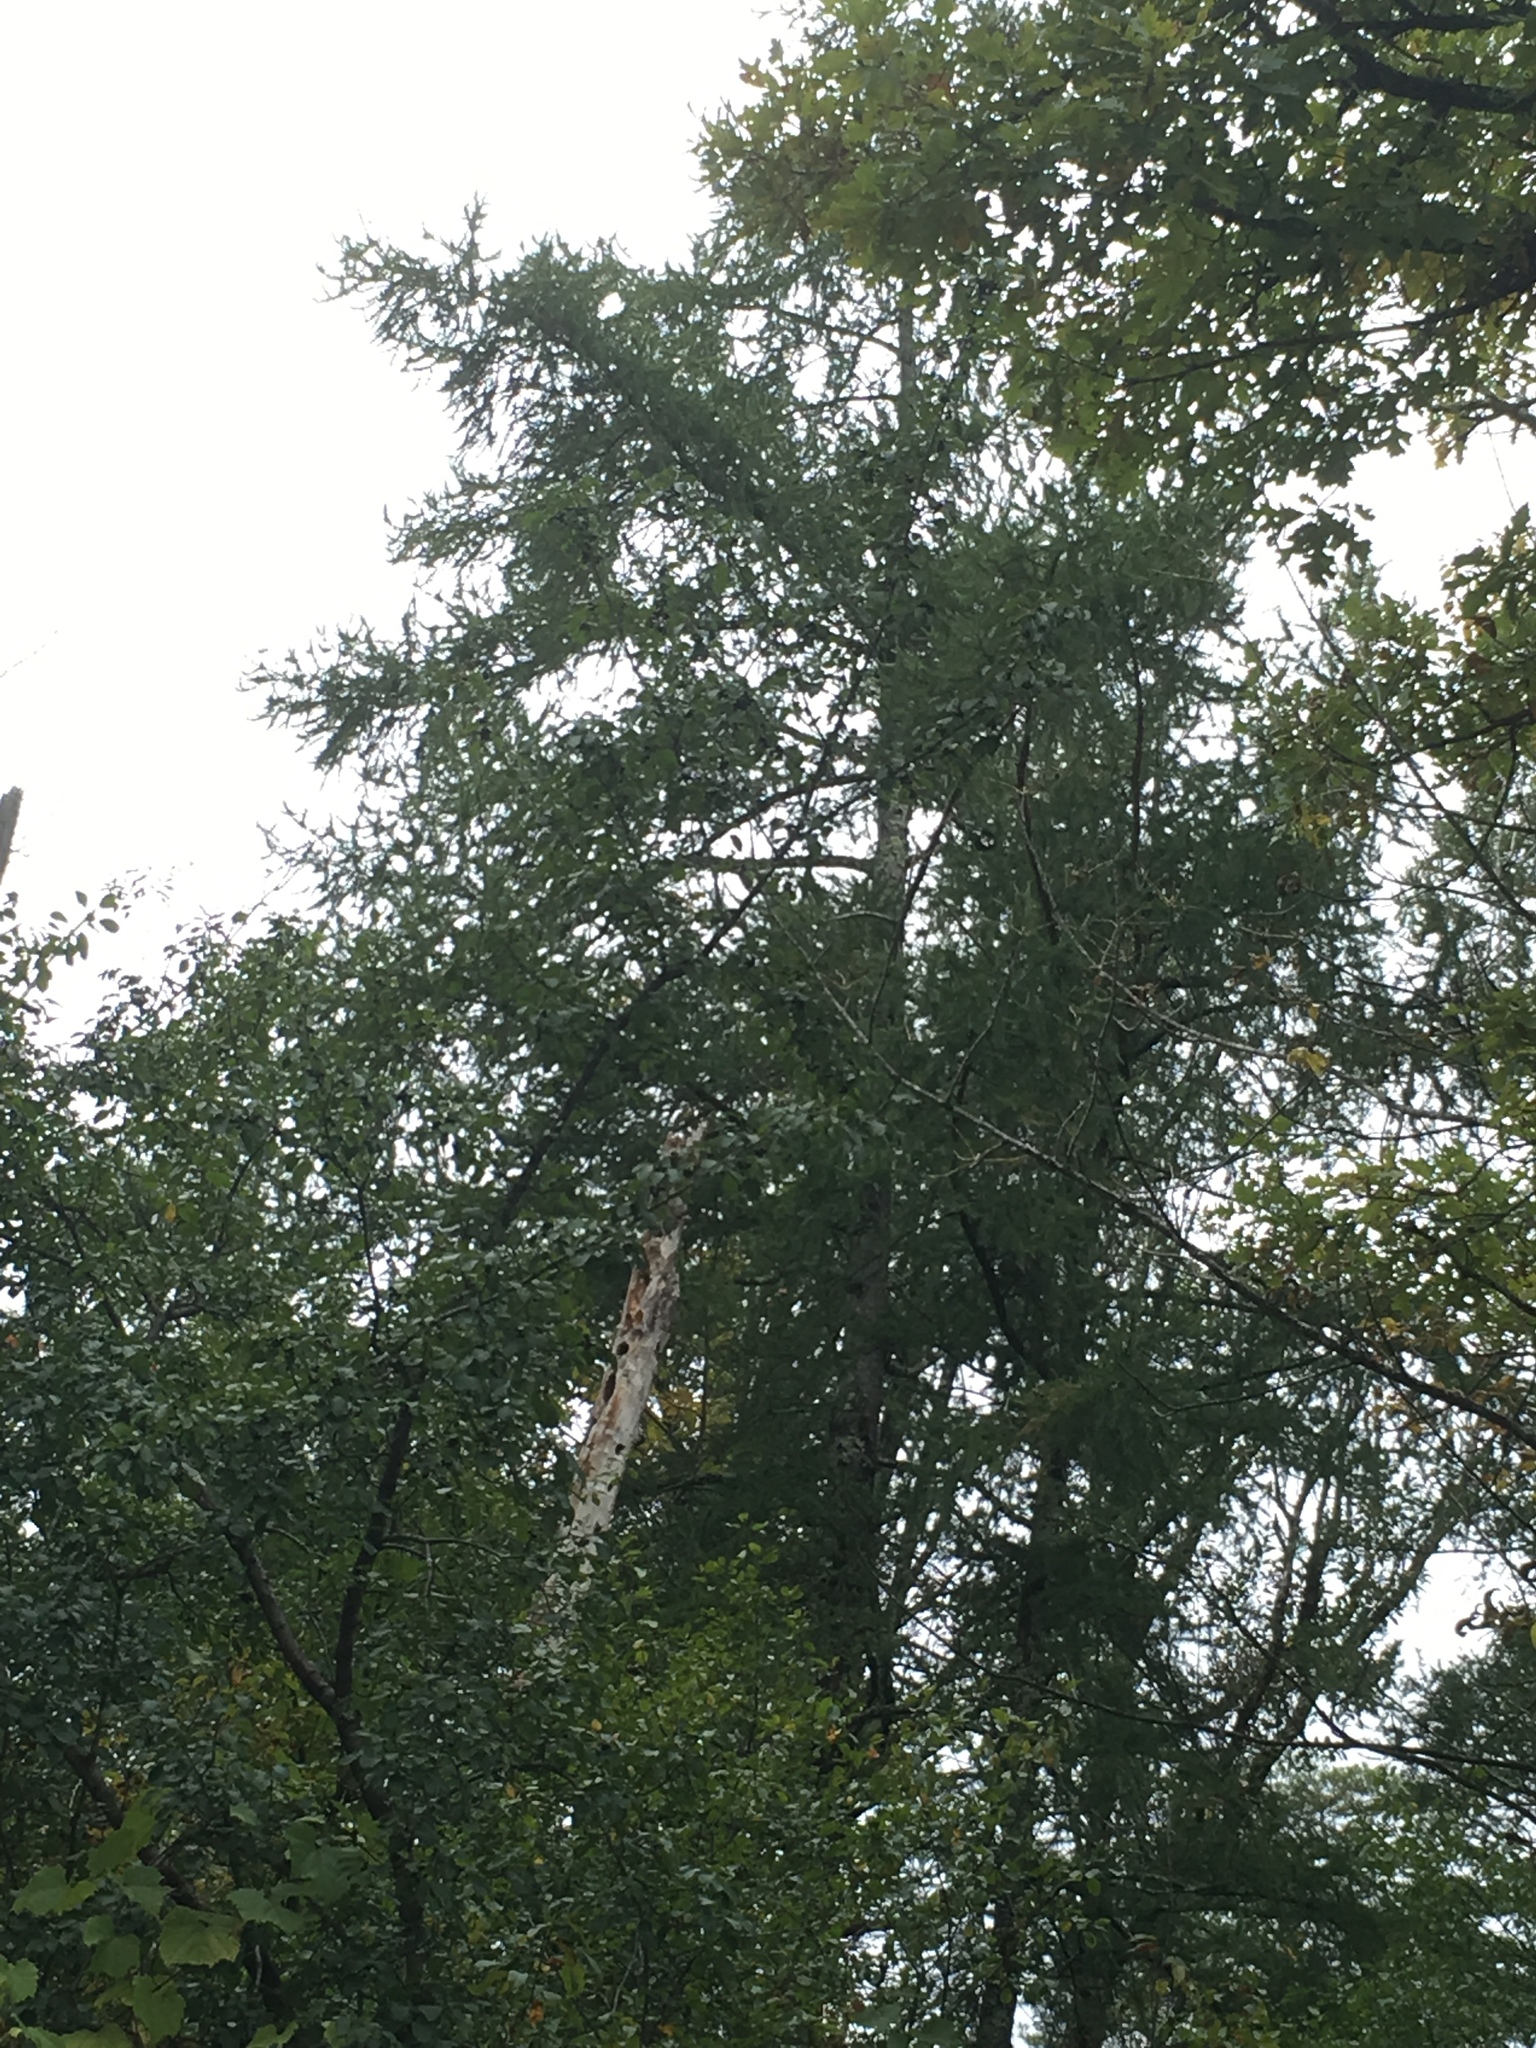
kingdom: Plantae
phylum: Tracheophyta
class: Pinopsida
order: Pinales
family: Pinaceae
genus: Larix
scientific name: Larix laricina
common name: American larch
